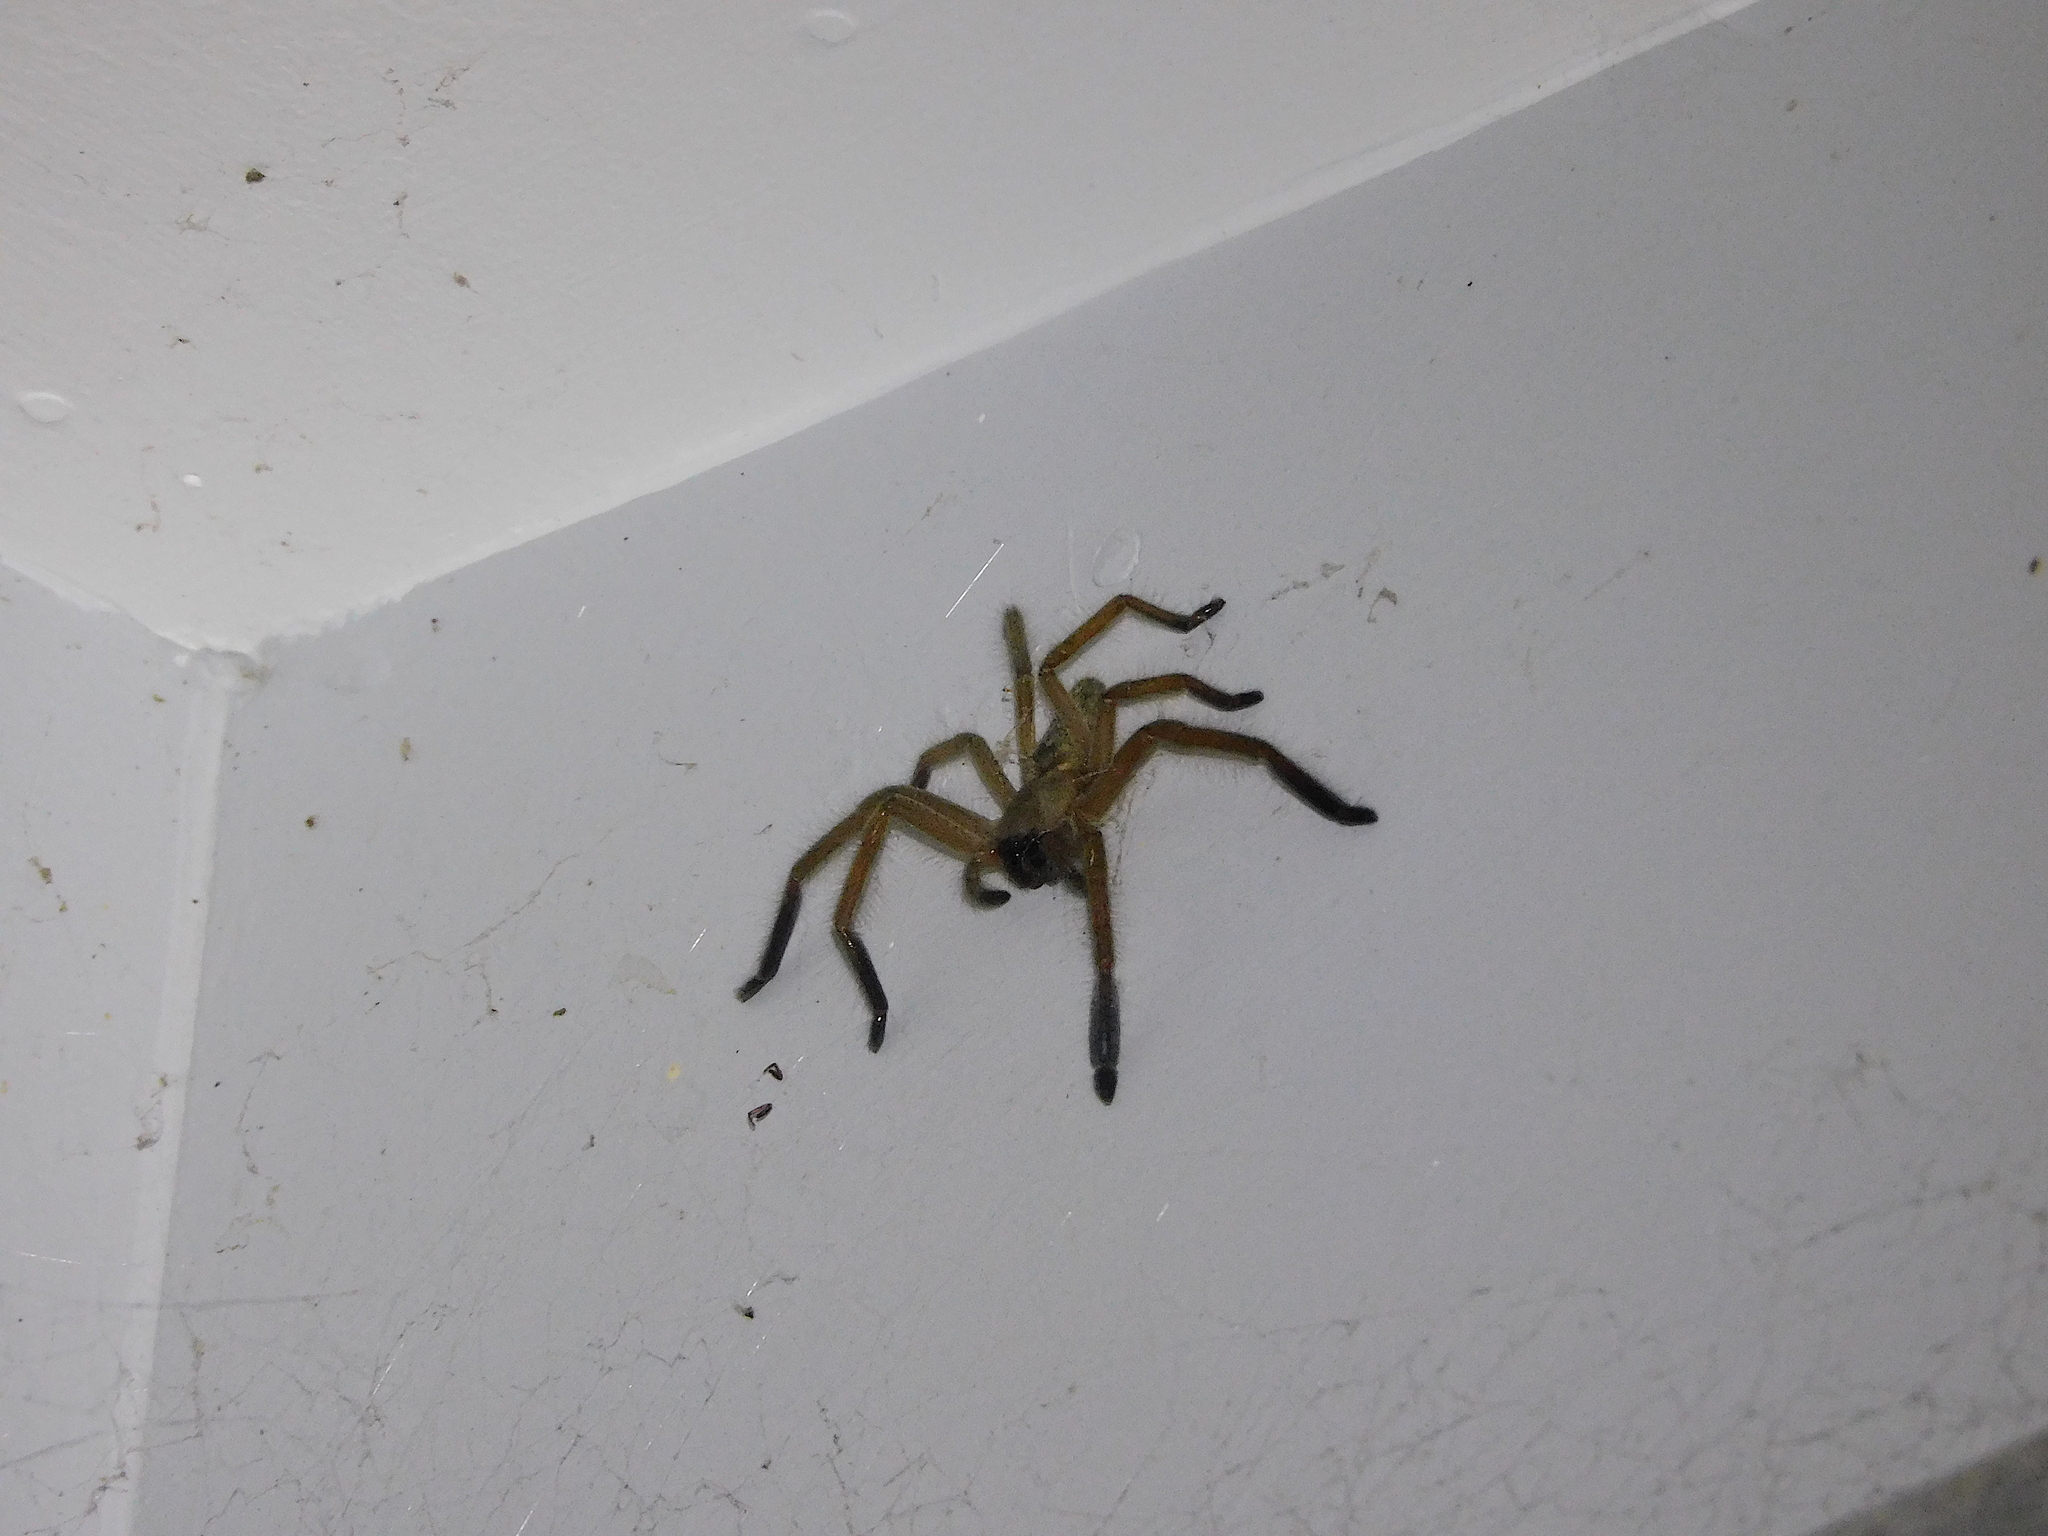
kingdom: Animalia
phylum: Arthropoda
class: Arachnida
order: Araneae
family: Sparassidae
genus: Delena
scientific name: Delena cancerides
